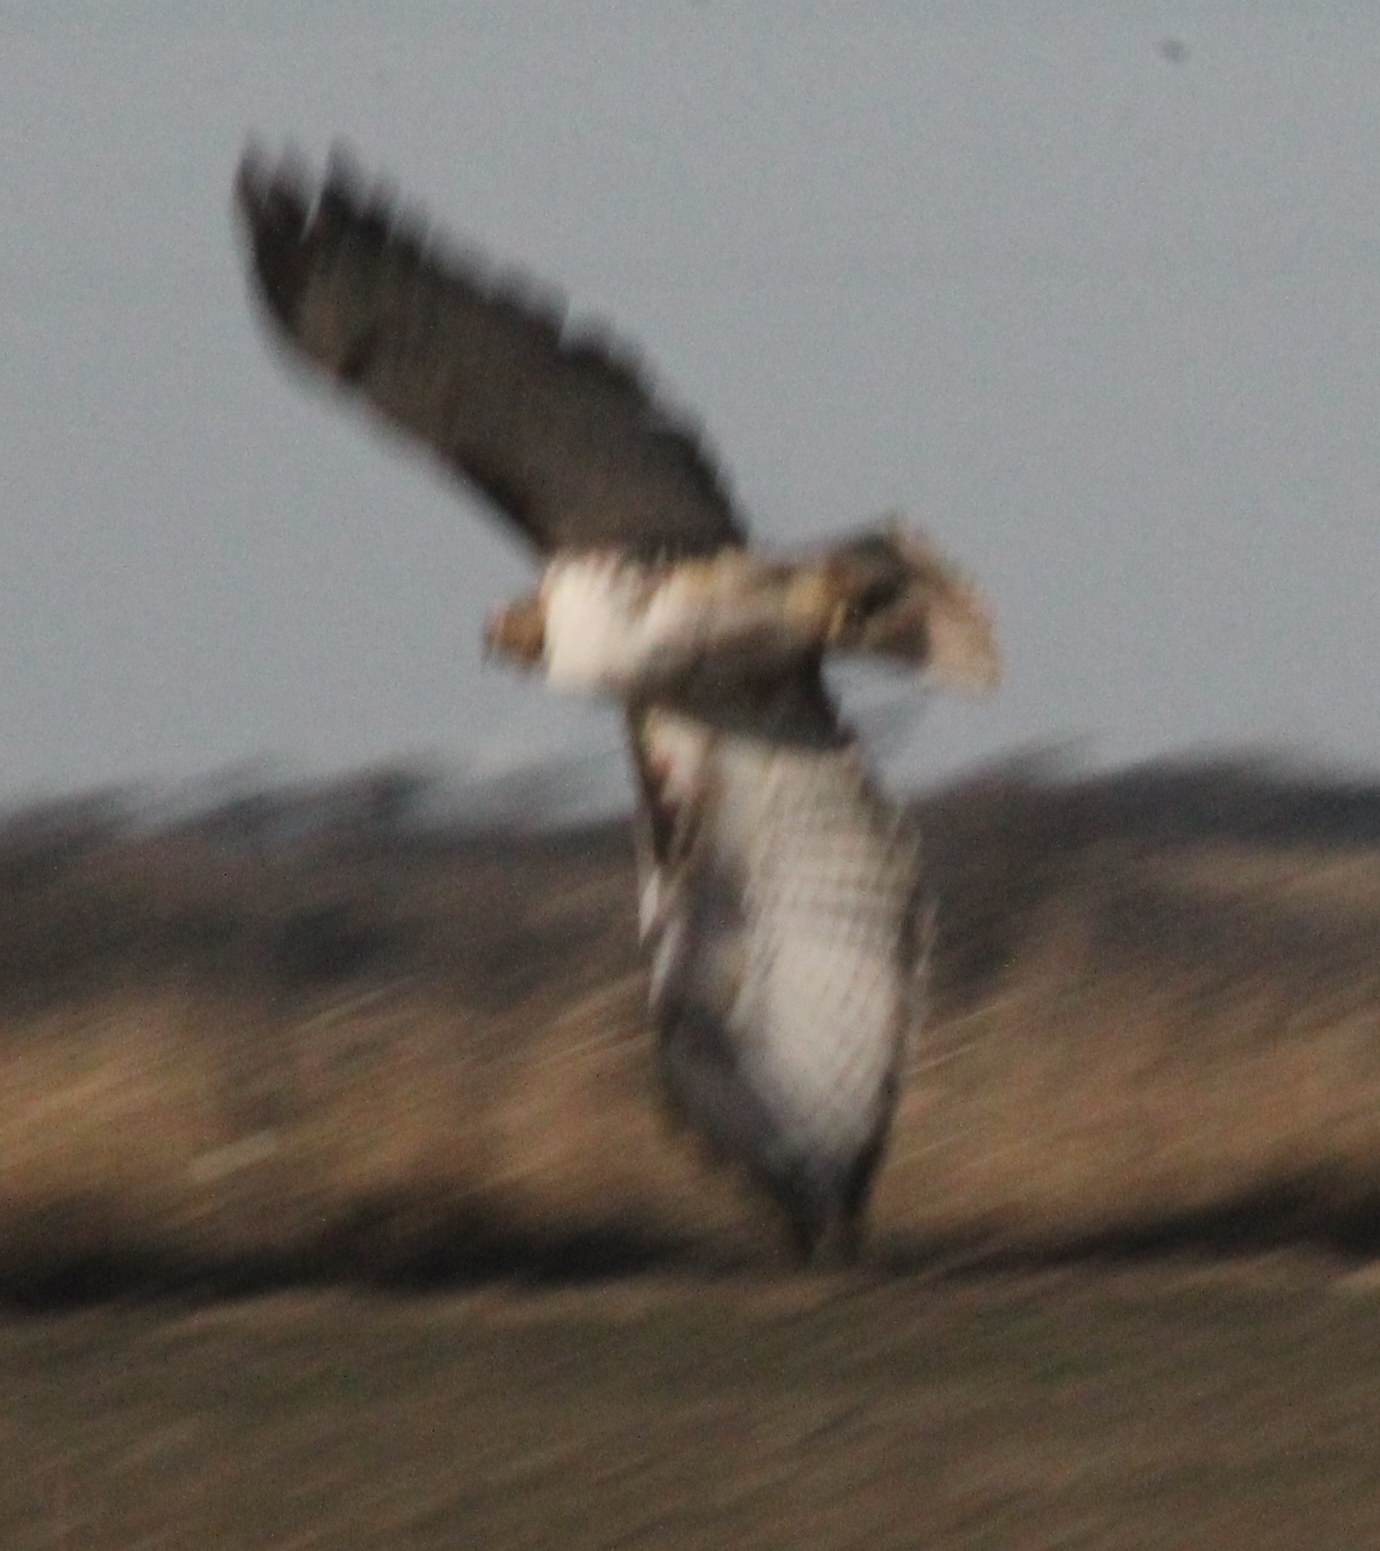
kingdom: Animalia
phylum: Chordata
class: Aves
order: Accipitriformes
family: Accipitridae
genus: Buteo
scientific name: Buteo jamaicensis
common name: Red-tailed hawk
